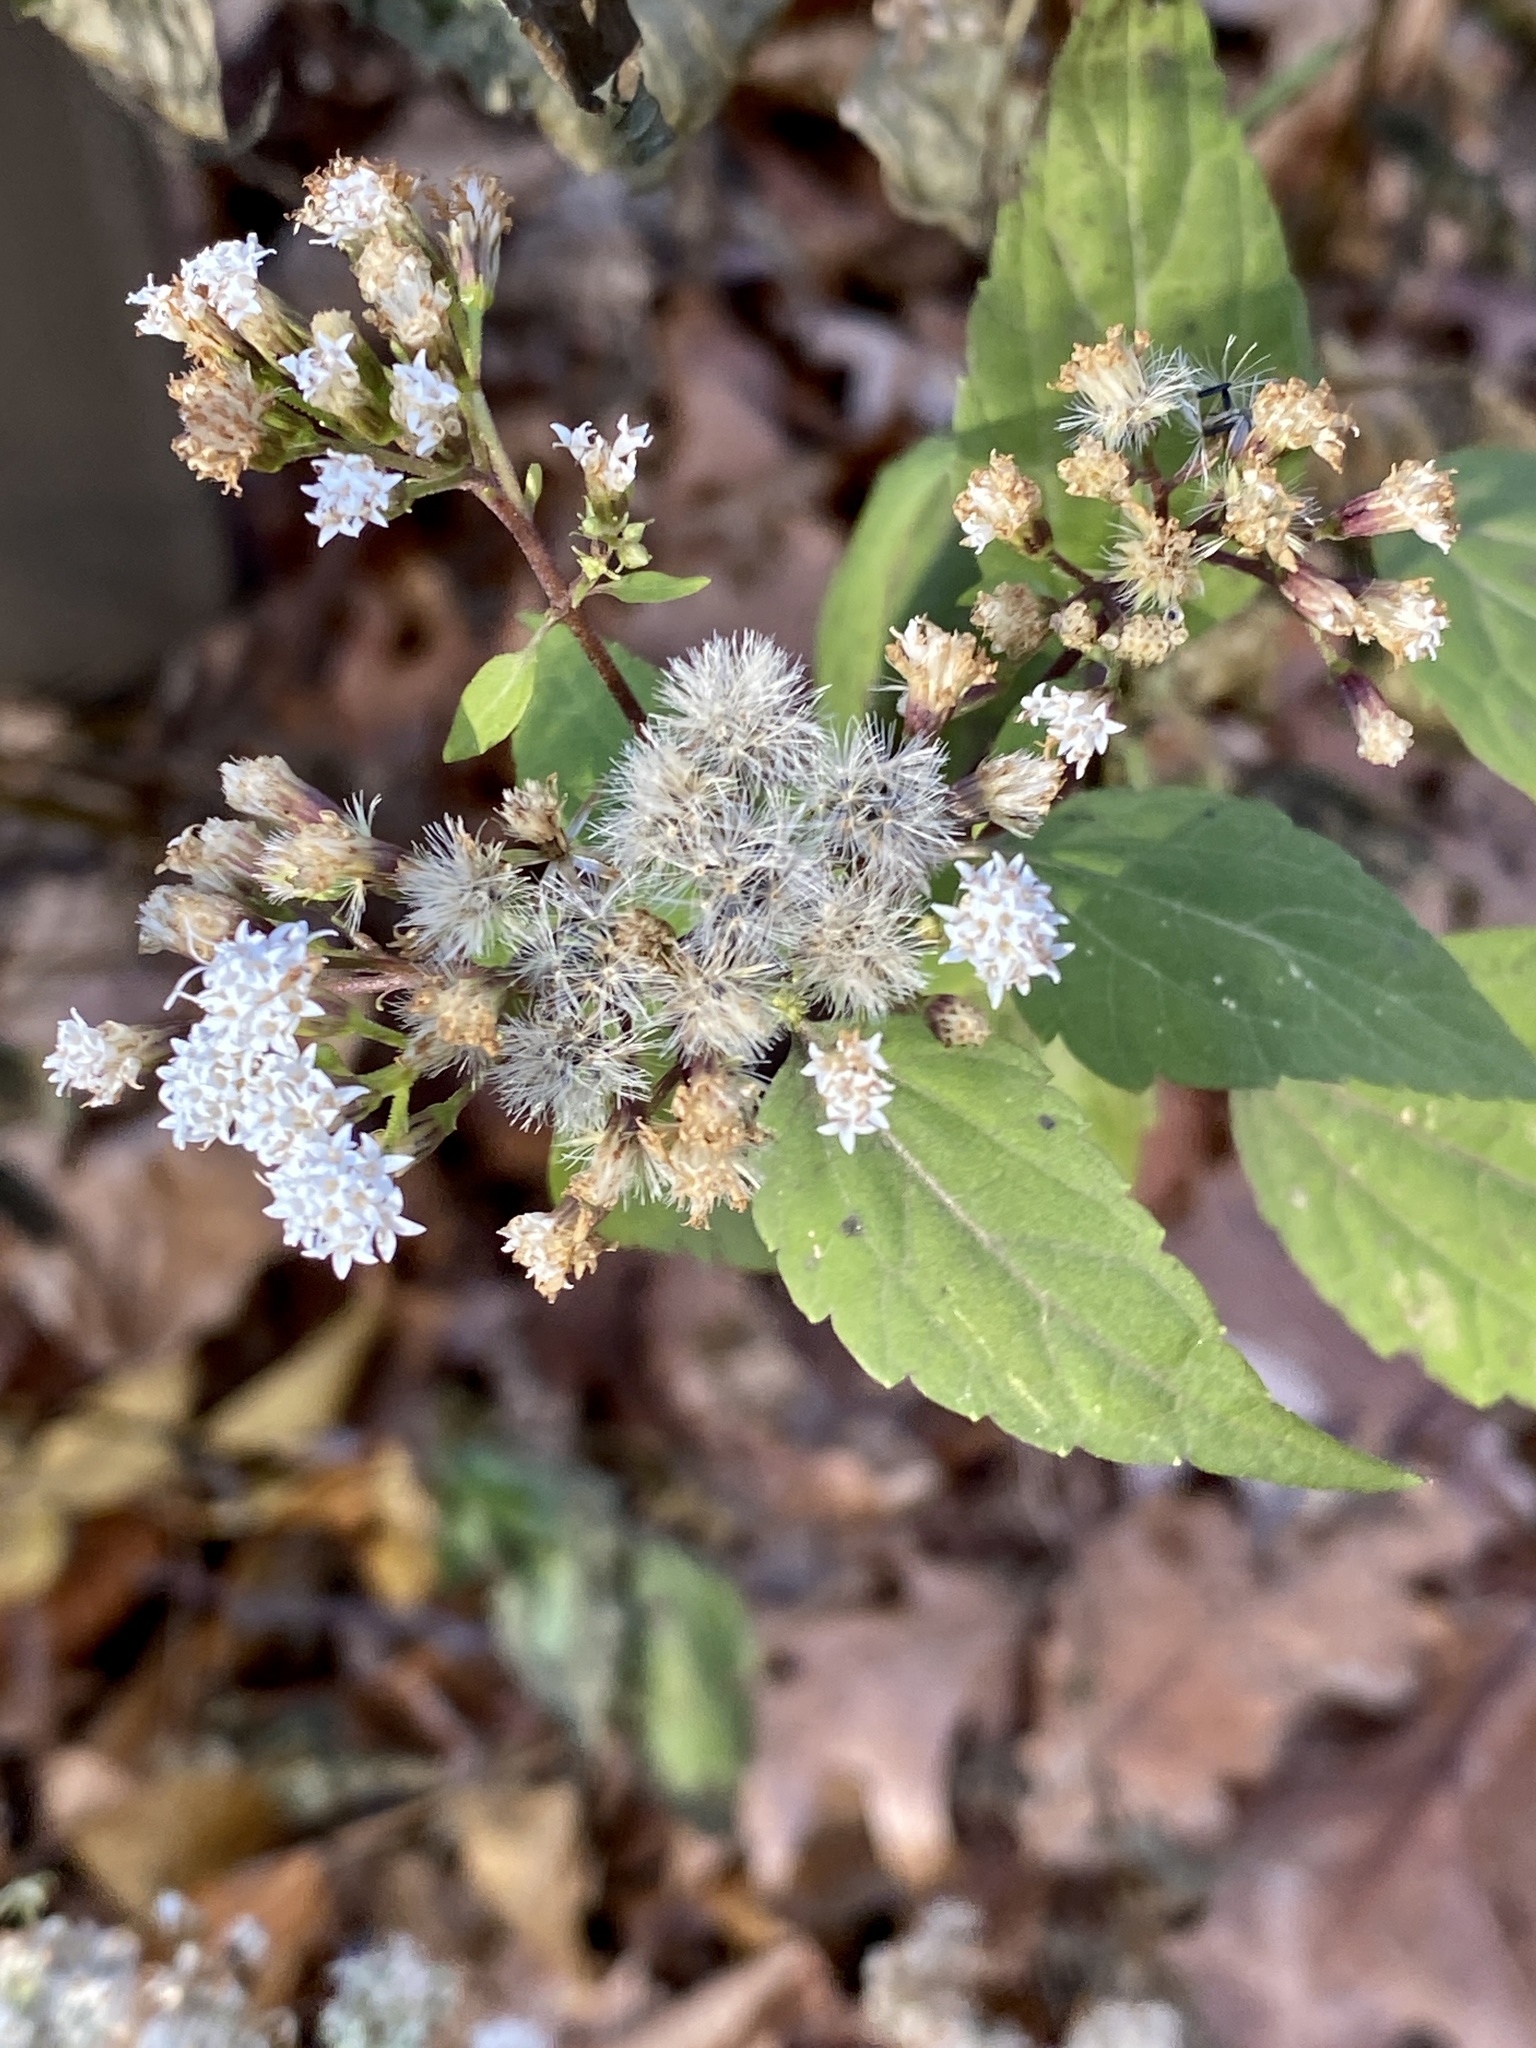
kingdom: Plantae
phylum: Tracheophyta
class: Magnoliopsida
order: Asterales
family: Asteraceae
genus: Ageratina
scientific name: Ageratina altissima
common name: White snakeroot
